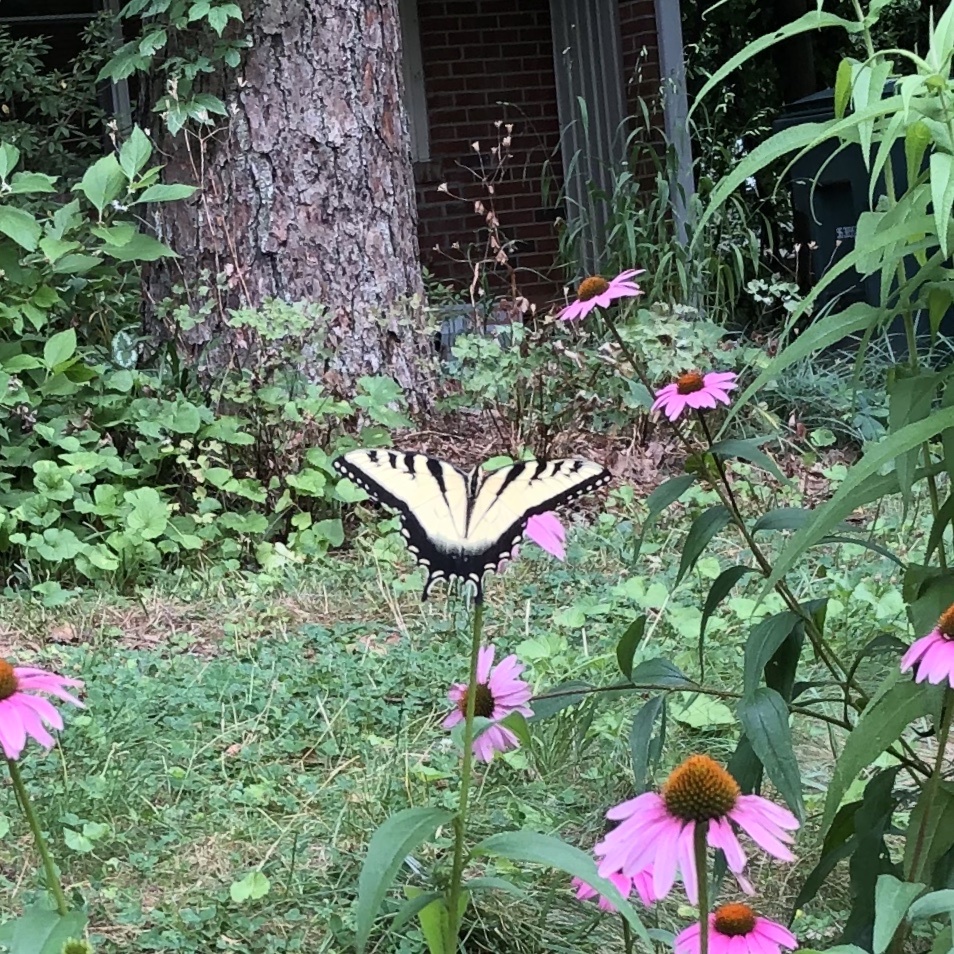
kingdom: Animalia
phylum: Arthropoda
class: Insecta
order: Lepidoptera
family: Papilionidae
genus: Papilio
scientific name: Papilio glaucus
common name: Tiger swallowtail
